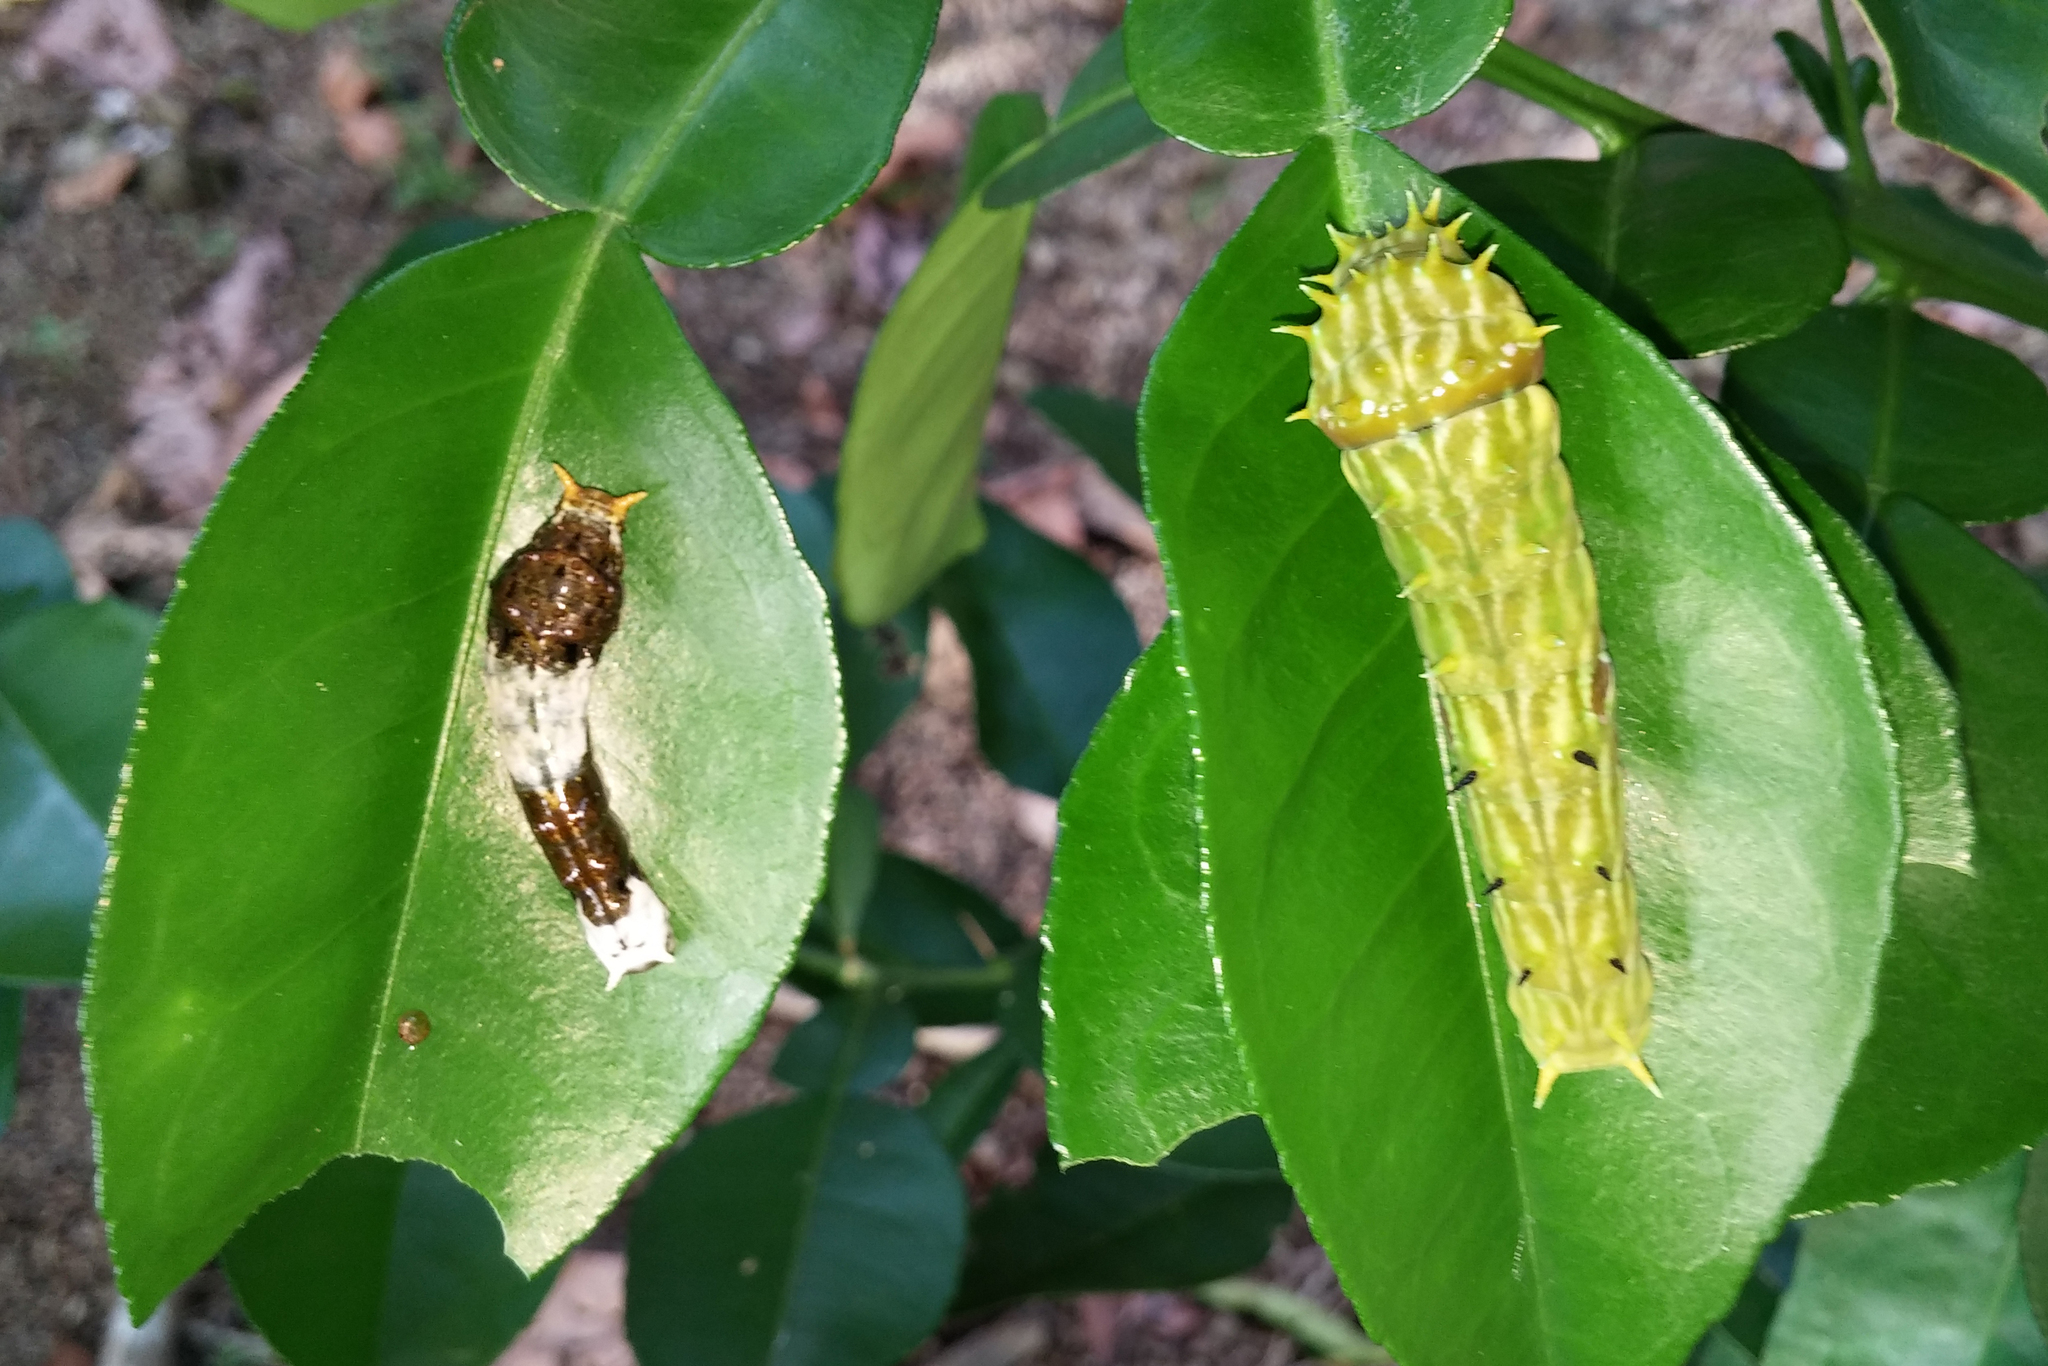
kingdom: Animalia
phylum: Arthropoda
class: Insecta
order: Lepidoptera
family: Papilionidae
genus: Papilio
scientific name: Papilio aegeus
